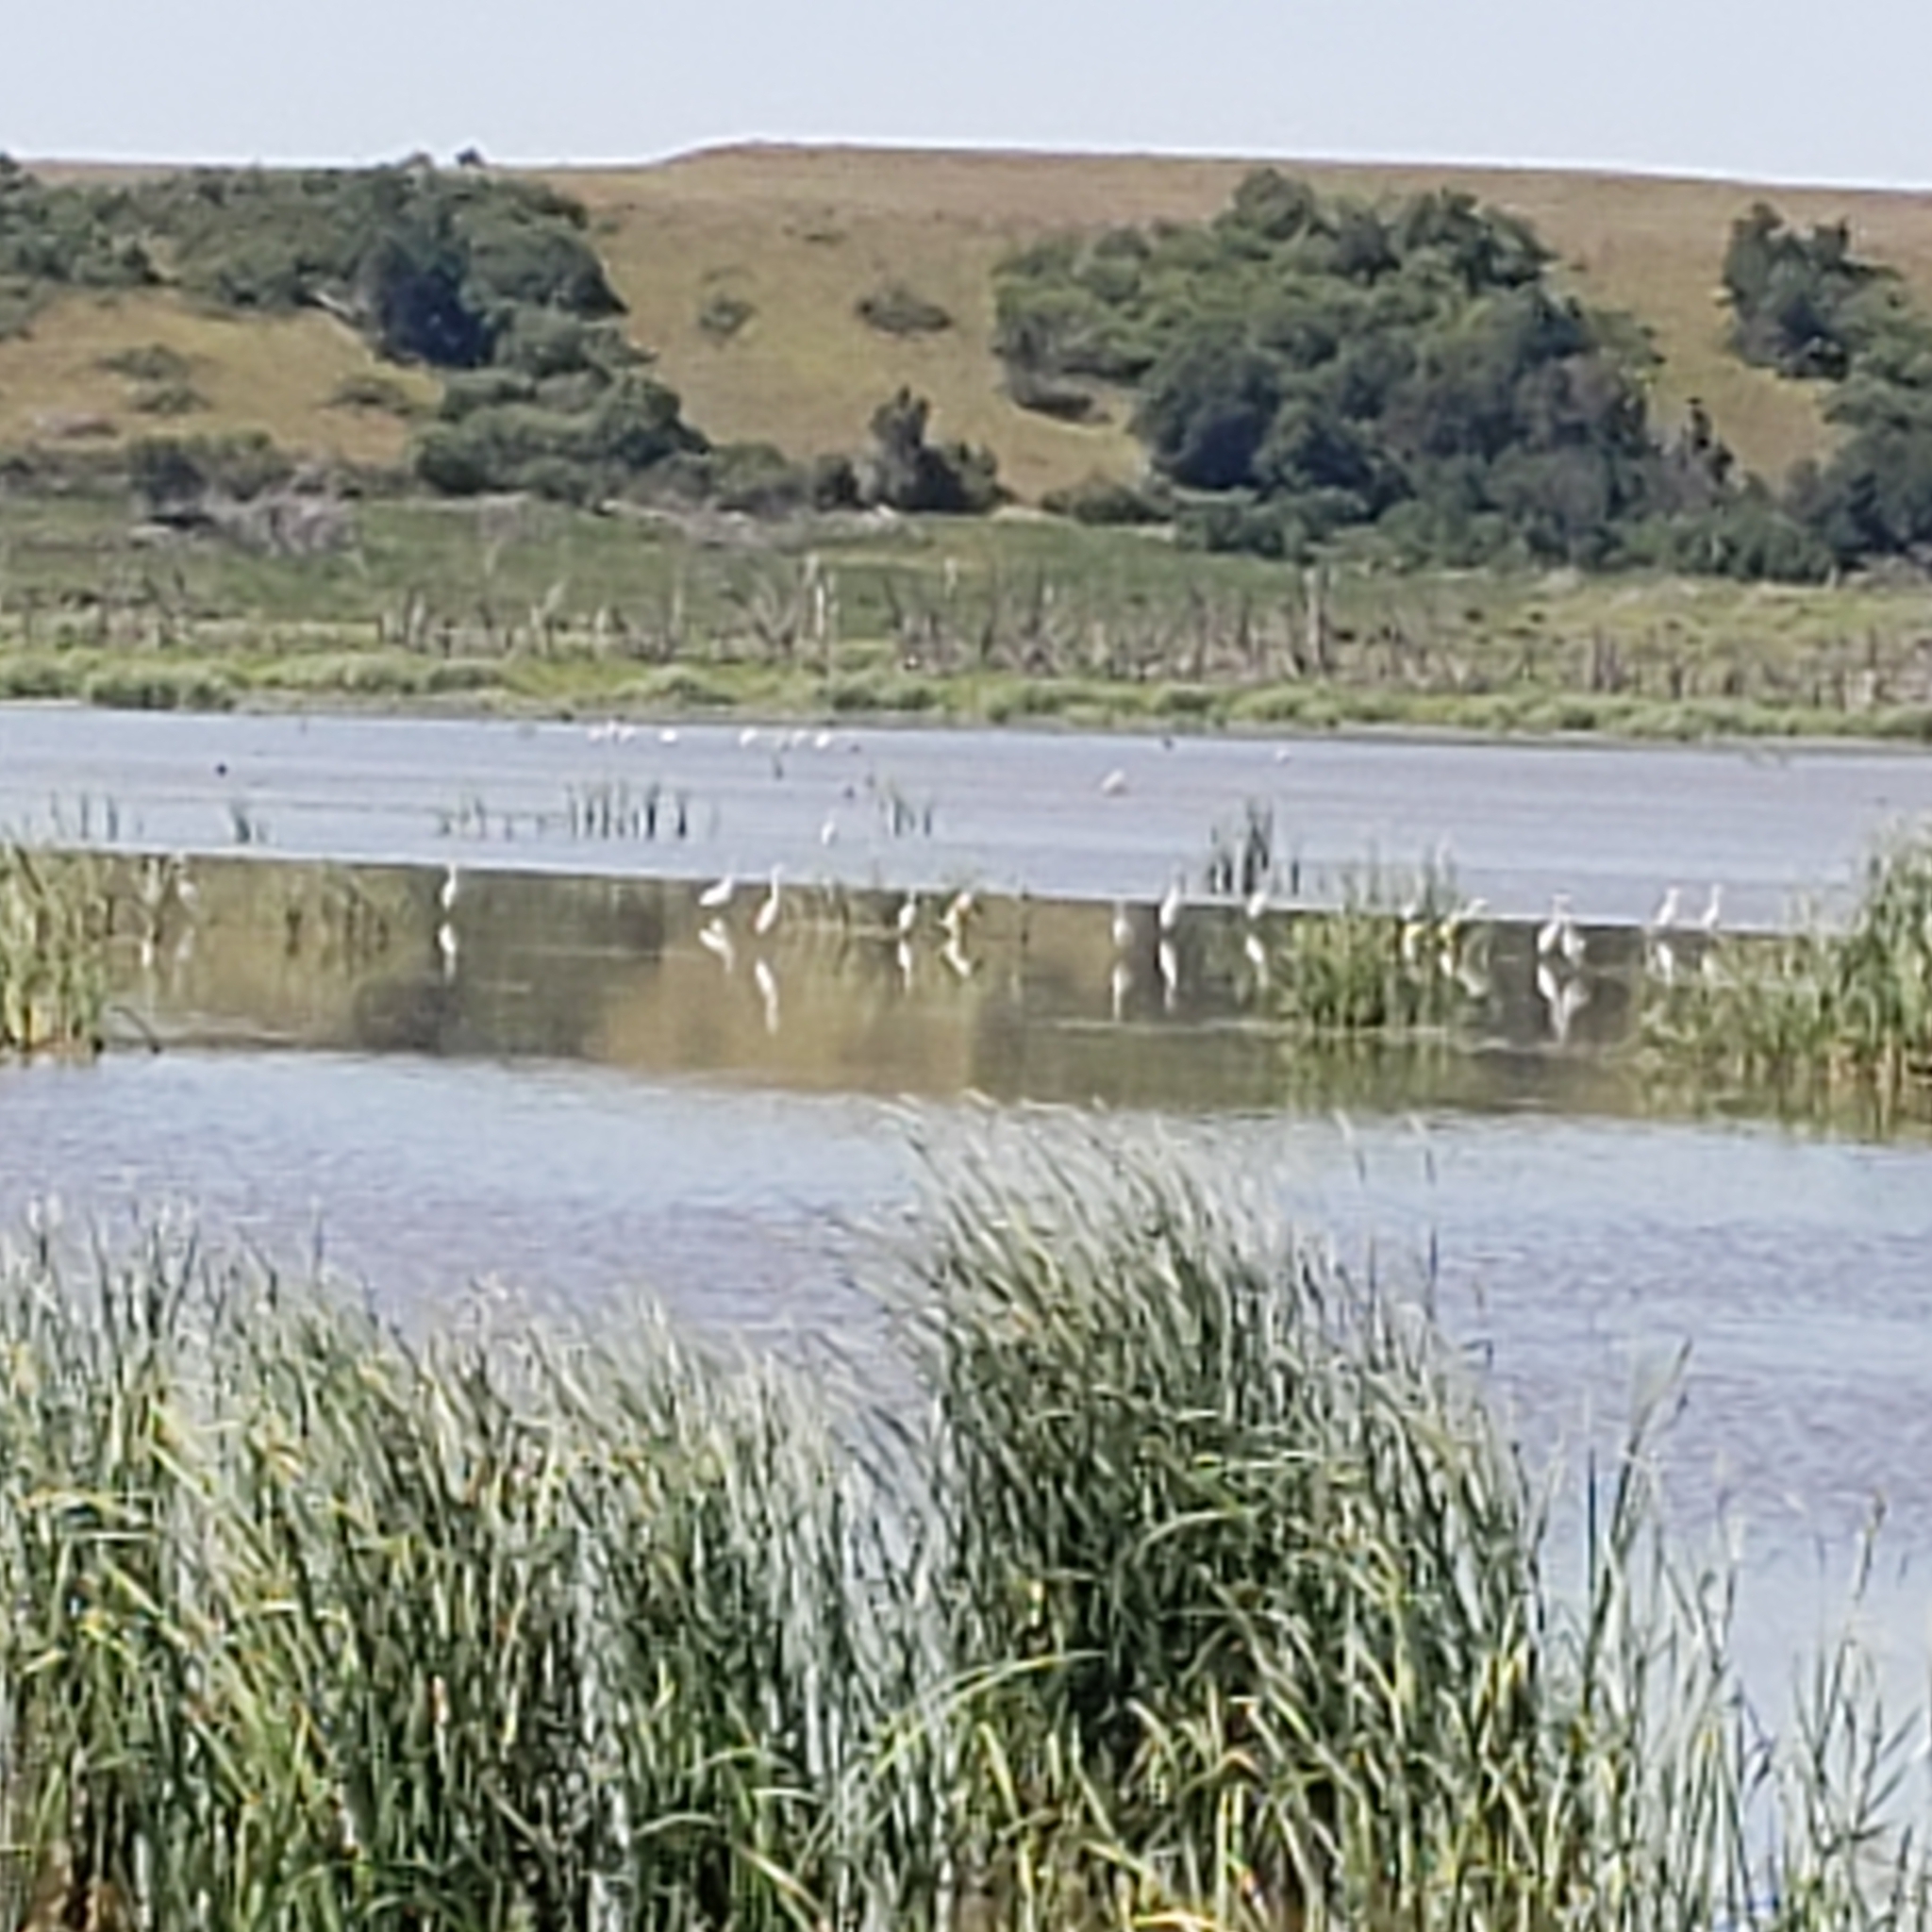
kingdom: Animalia
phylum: Chordata
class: Aves
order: Pelecaniformes
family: Ardeidae
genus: Ardea
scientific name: Ardea alba
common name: Great egret
